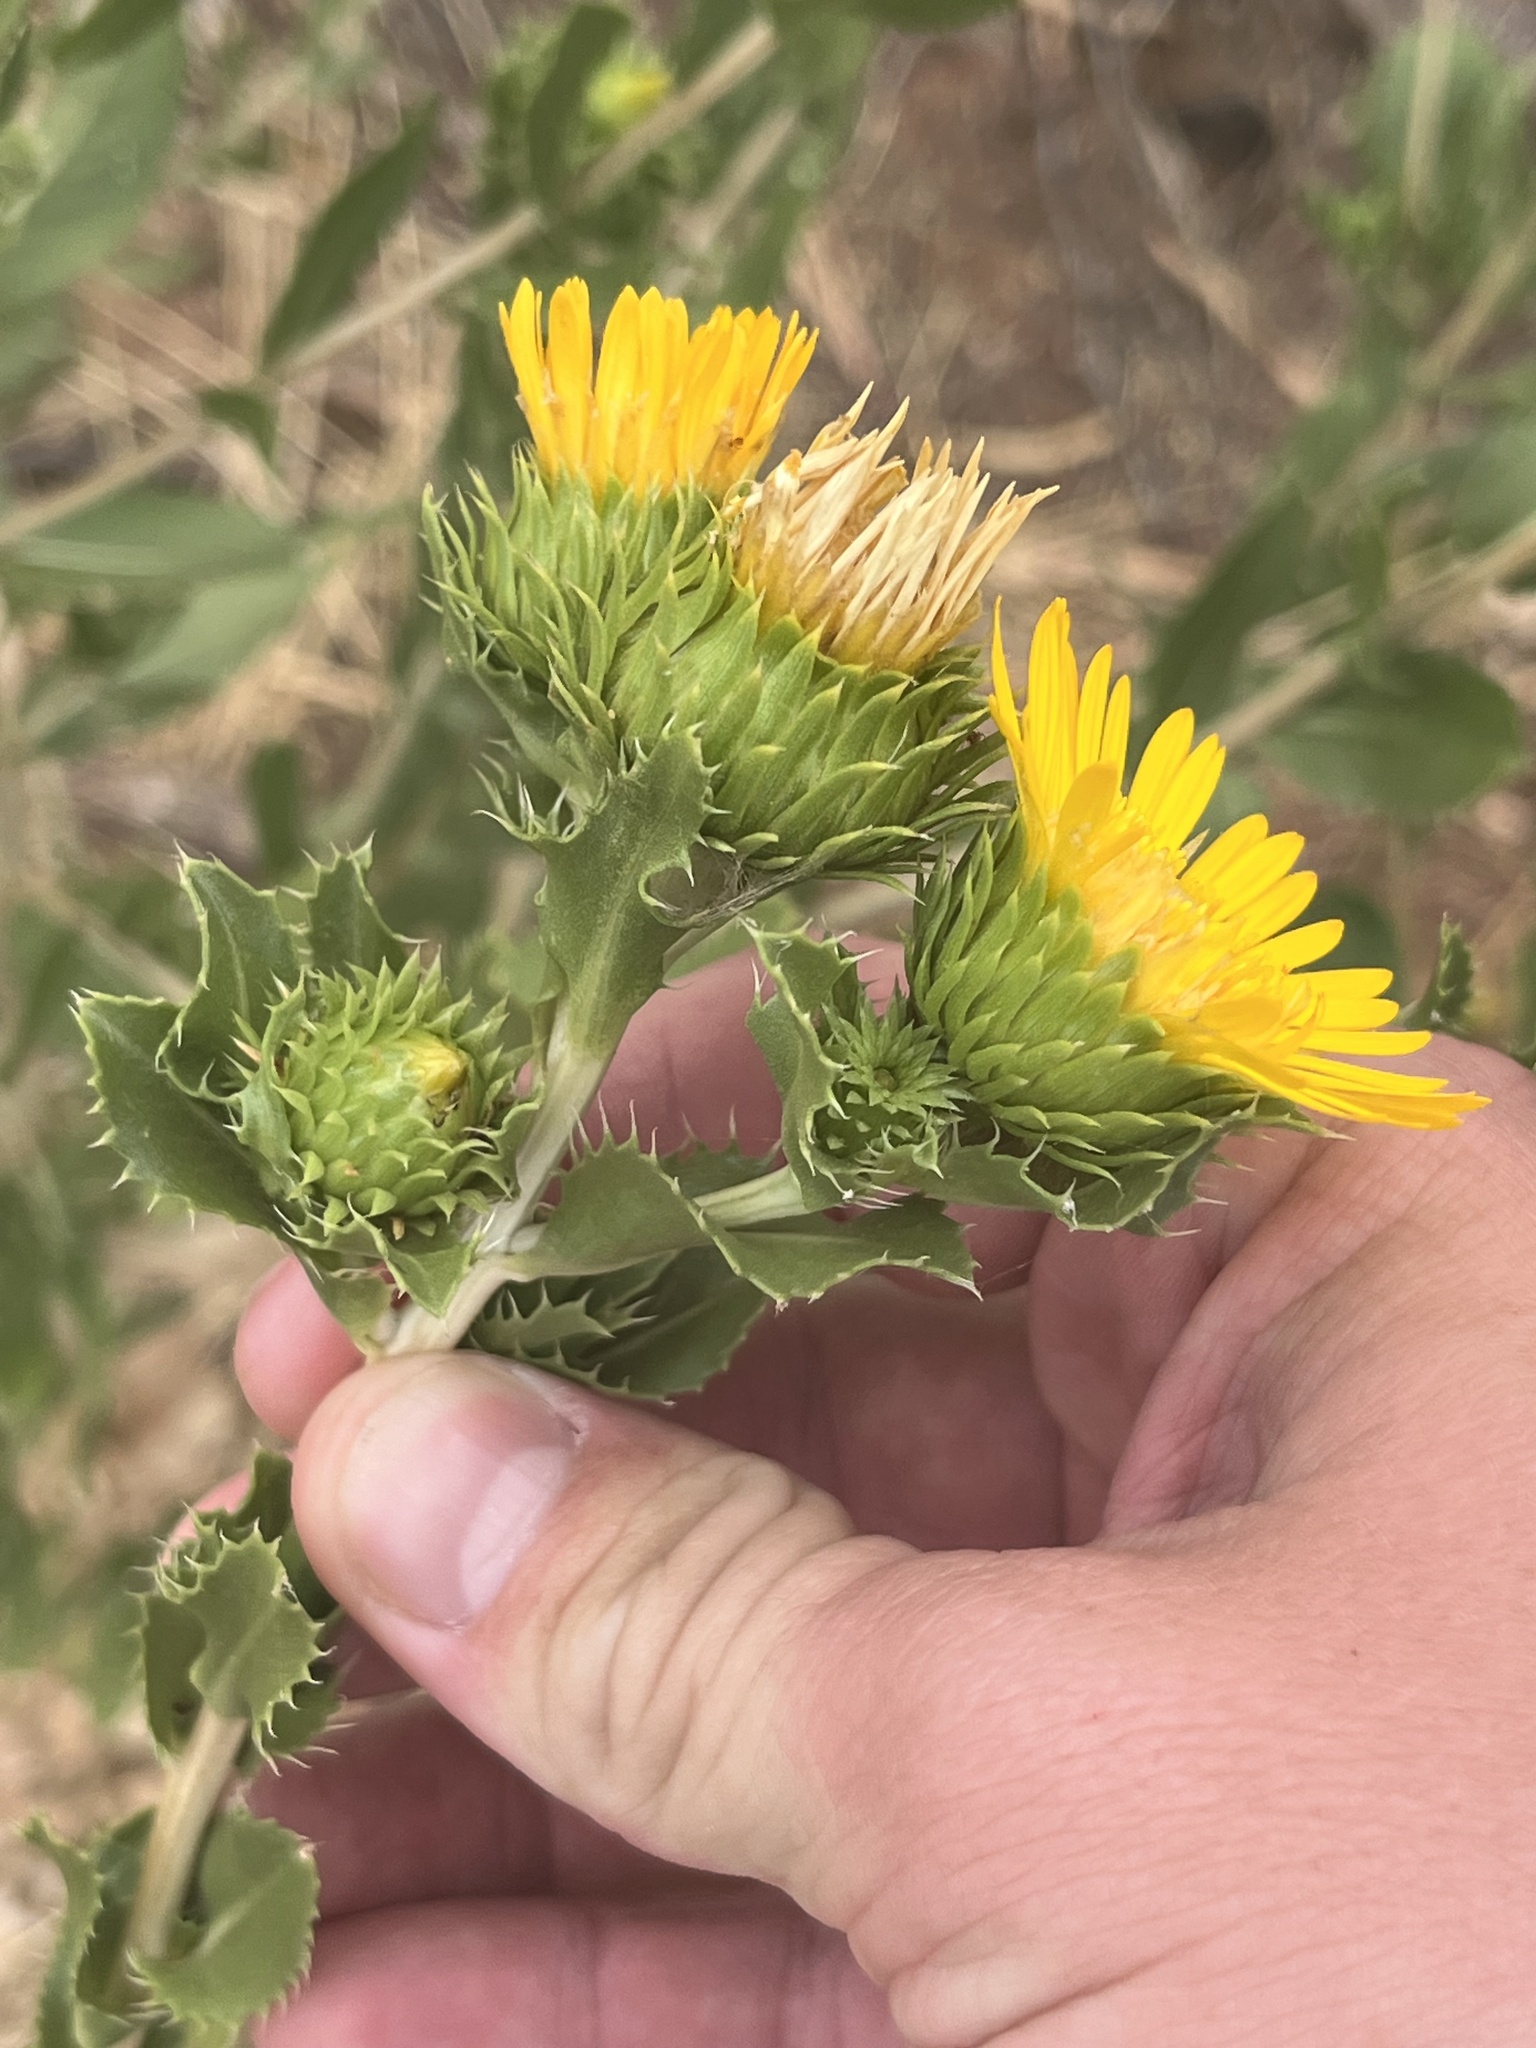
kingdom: Plantae
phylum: Tracheophyta
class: Magnoliopsida
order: Asterales
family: Asteraceae
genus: Grindelia
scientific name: Grindelia ciliata
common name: Goldenweed
